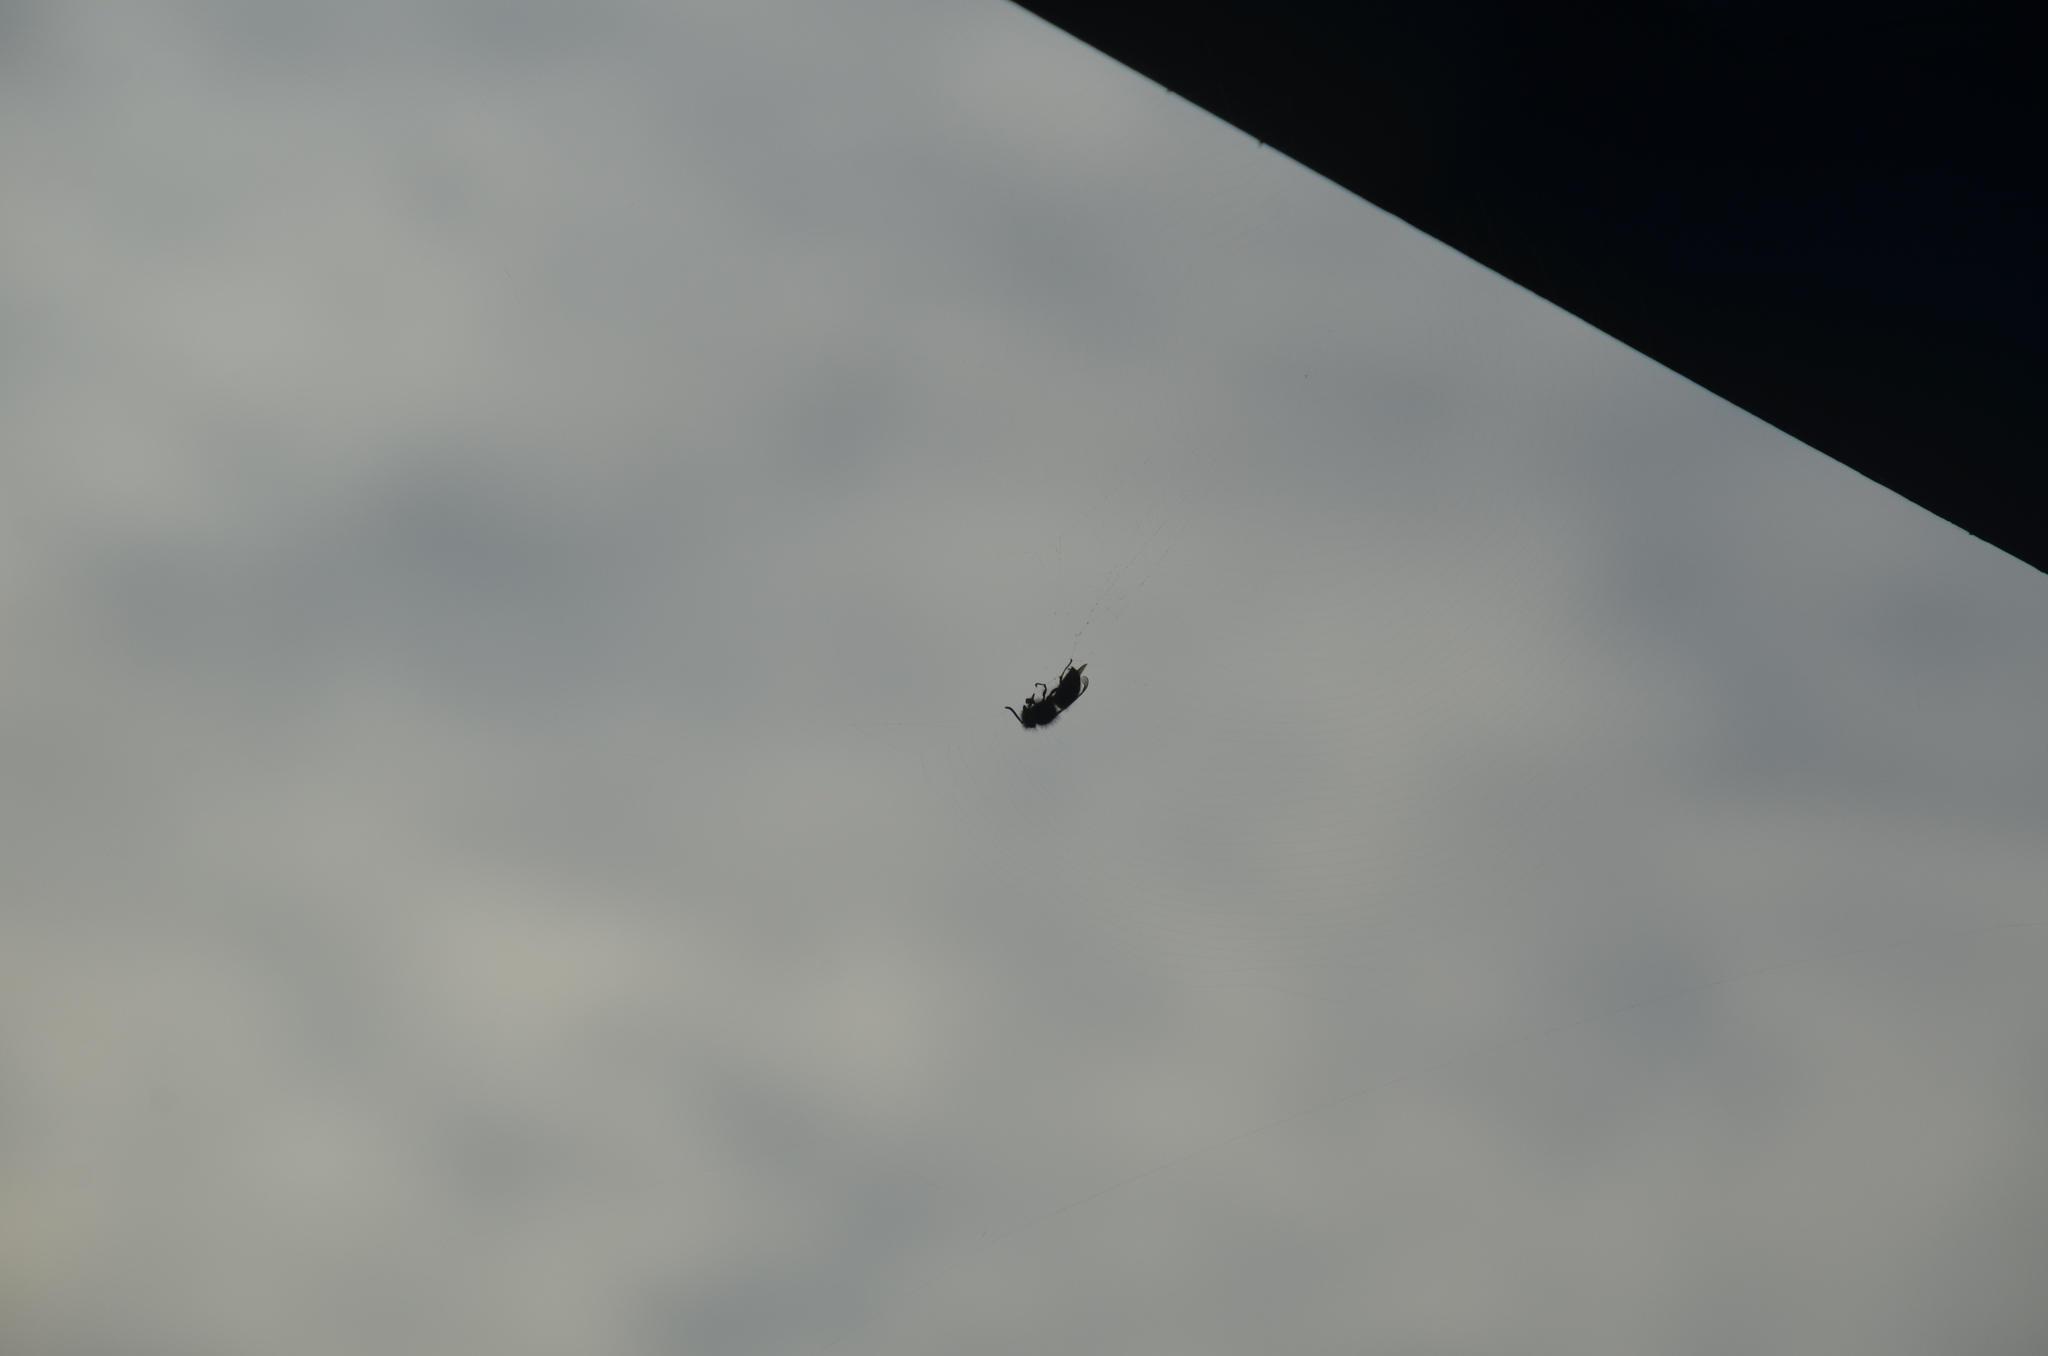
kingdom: Animalia
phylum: Arthropoda
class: Insecta
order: Hymenoptera
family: Vespidae
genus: Vespula
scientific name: Vespula
